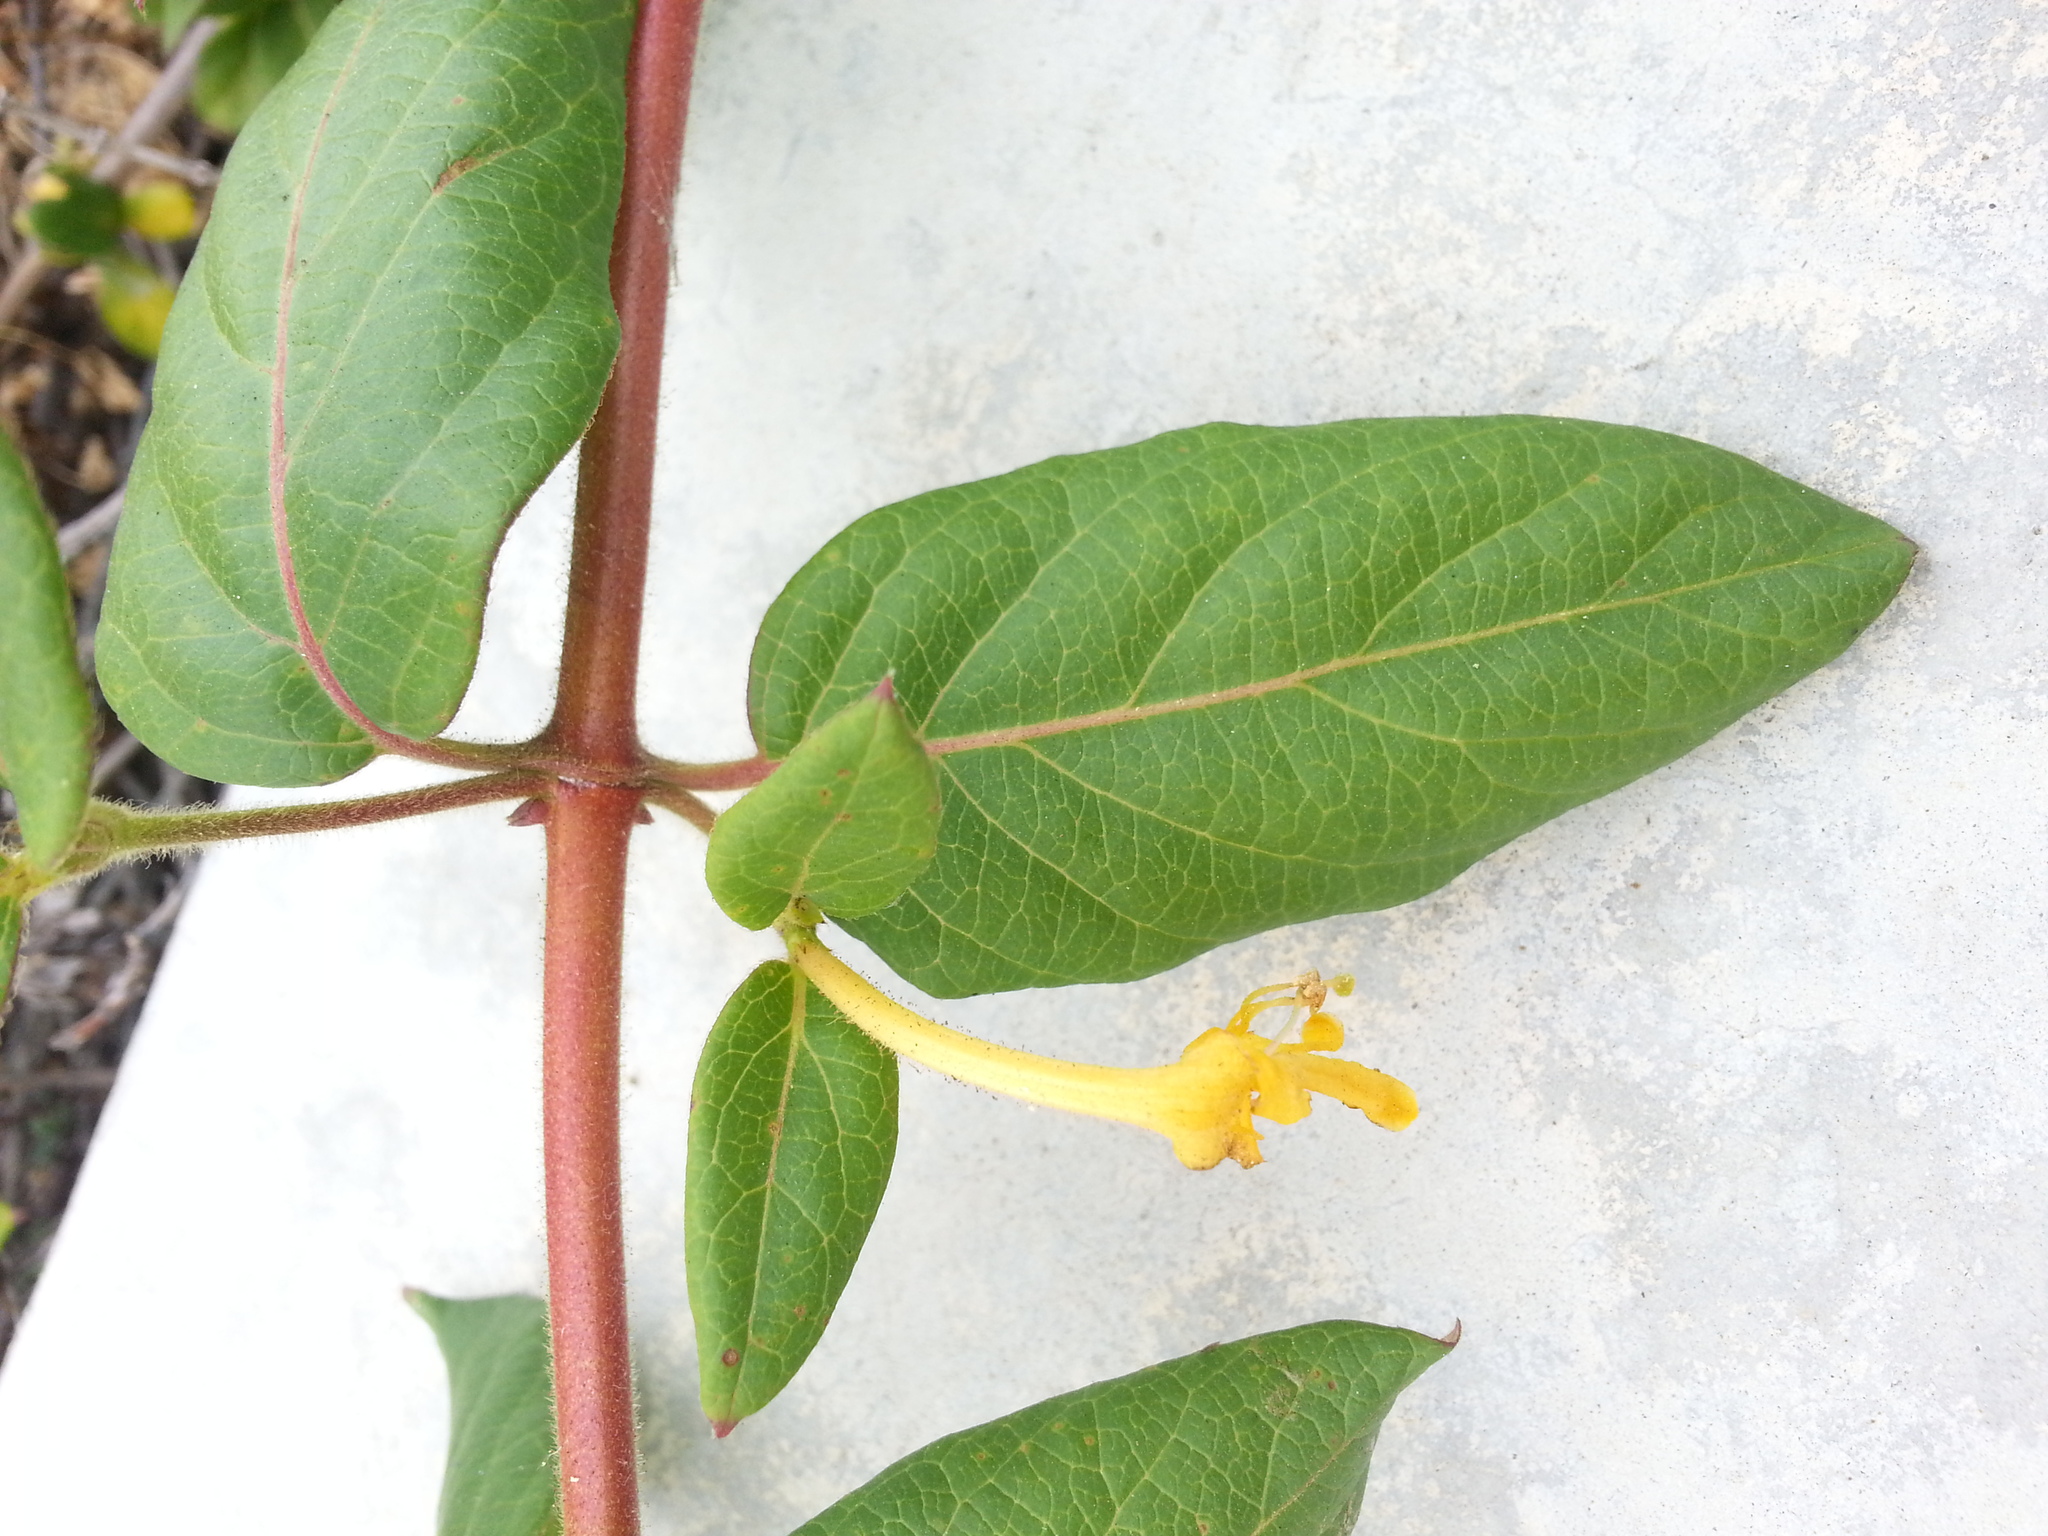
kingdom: Plantae
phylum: Tracheophyta
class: Magnoliopsida
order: Dipsacales
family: Caprifoliaceae
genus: Lonicera
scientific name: Lonicera japonica
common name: Japanese honeysuckle
